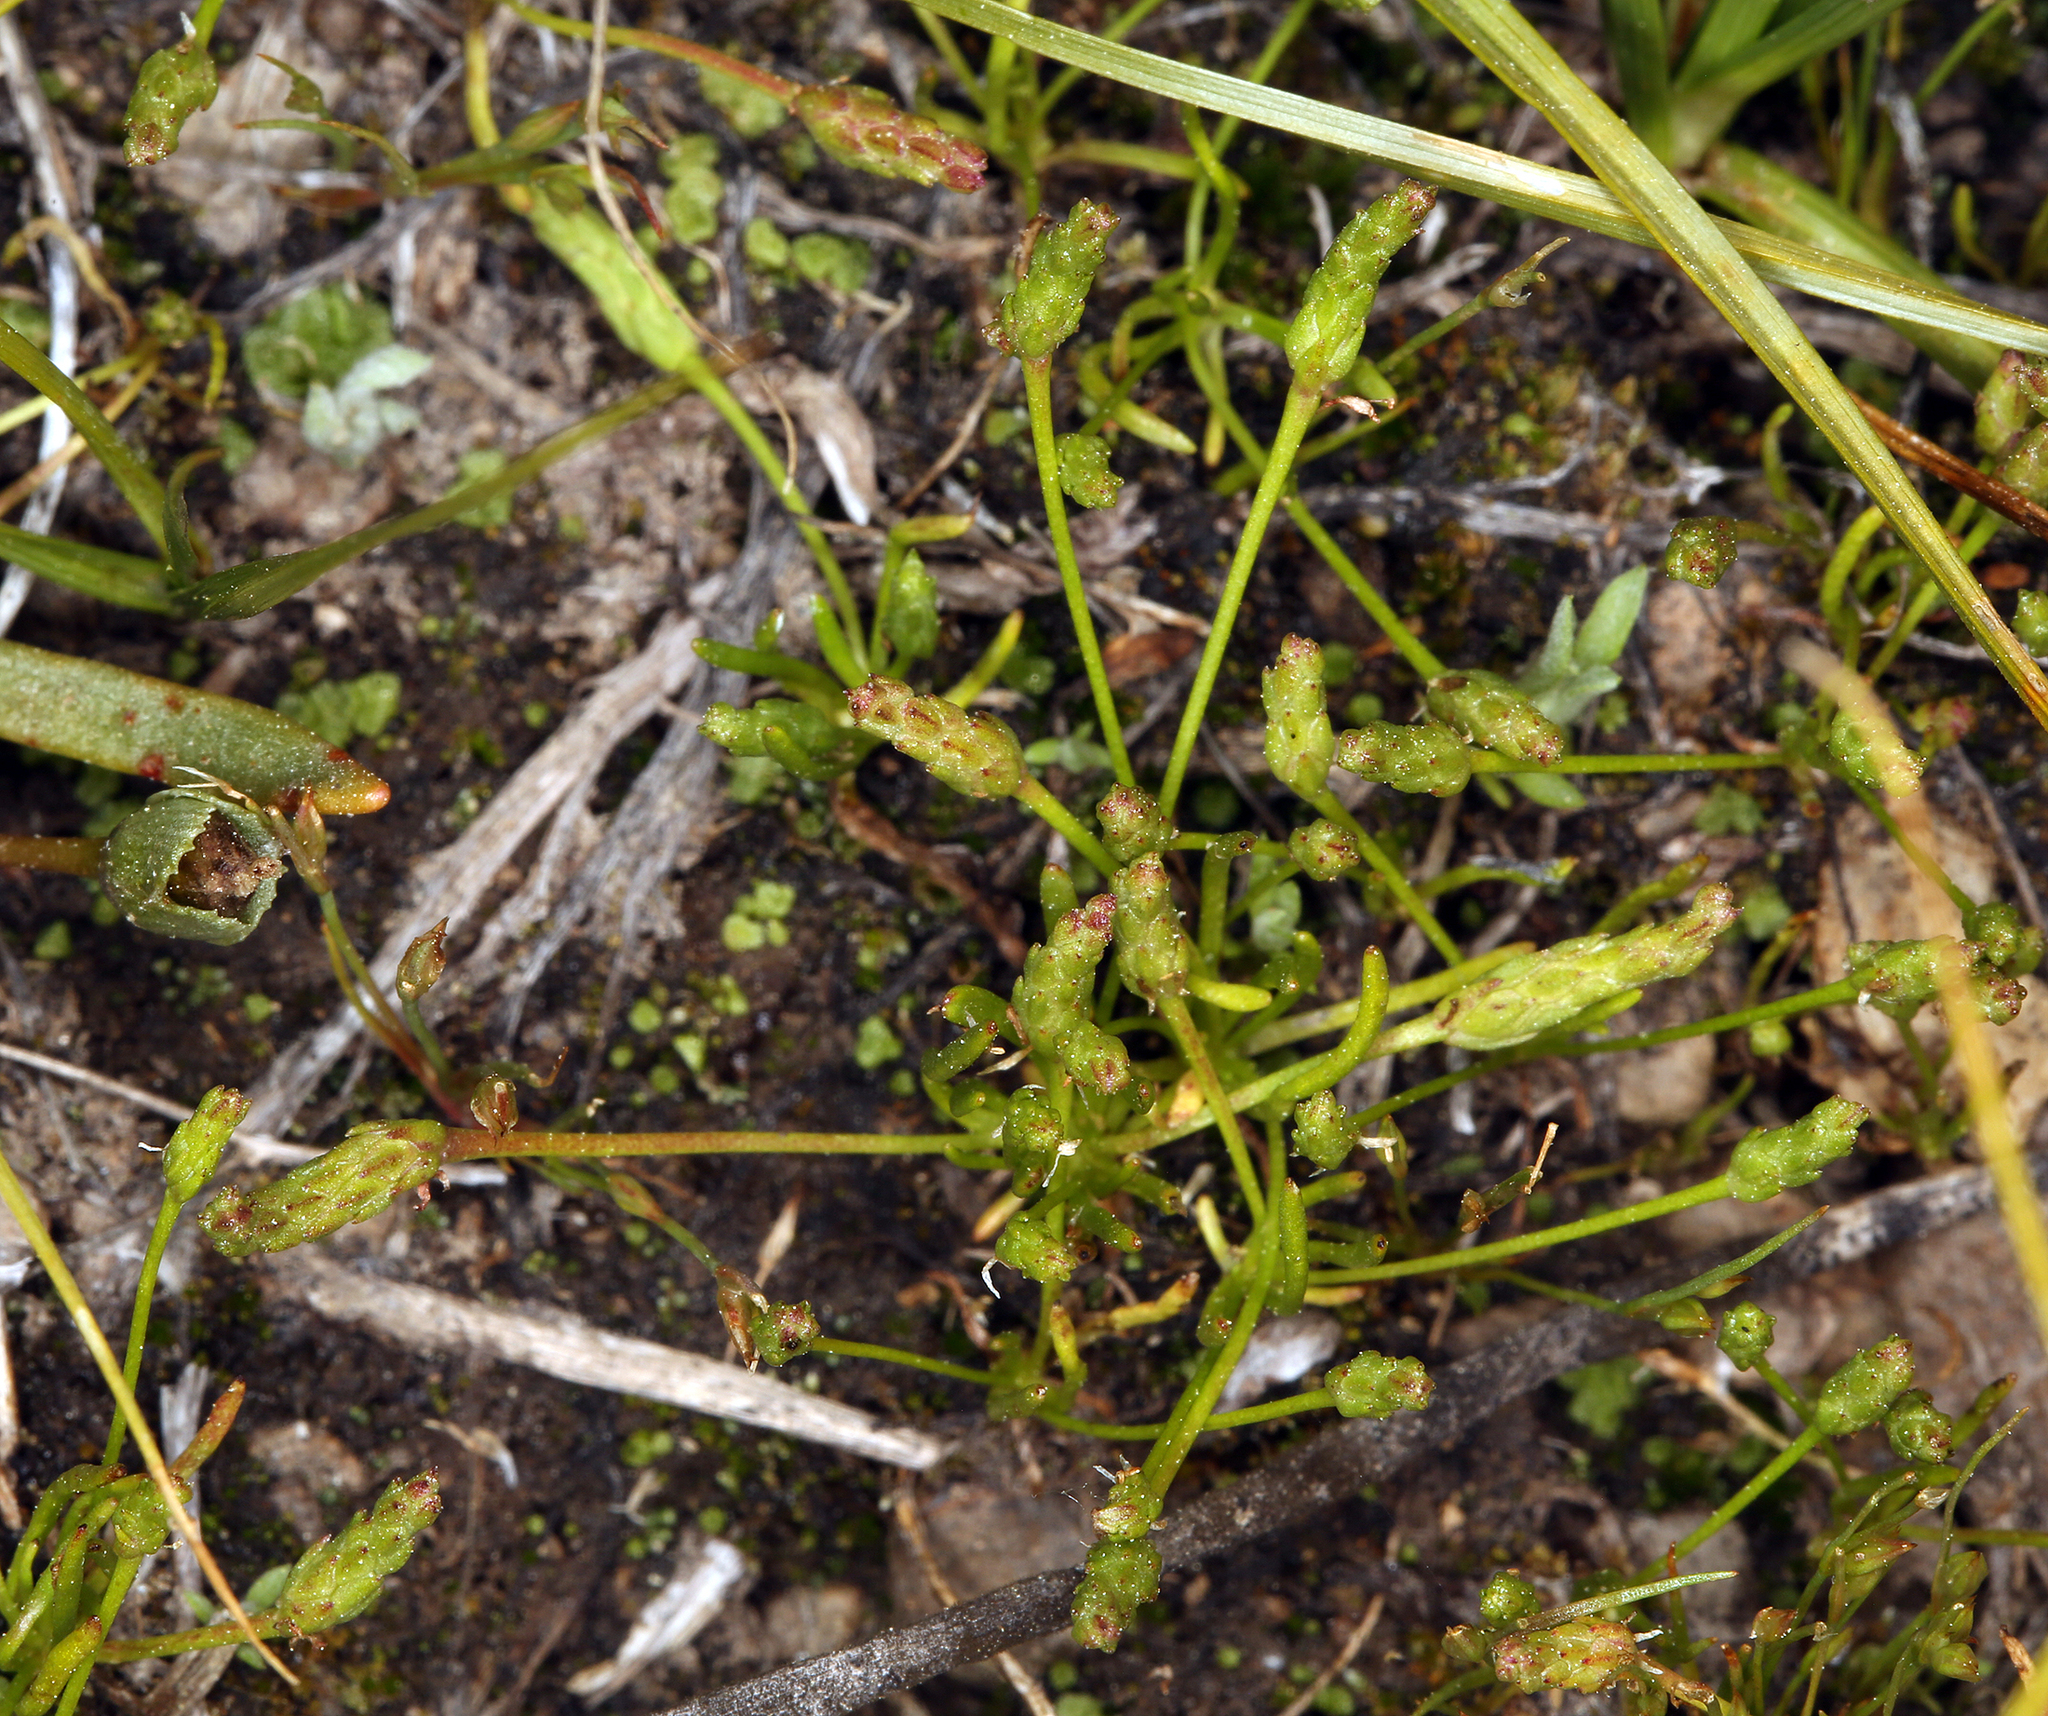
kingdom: Plantae
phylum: Tracheophyta
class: Magnoliopsida
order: Ranunculales
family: Ranunculaceae
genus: Myosurus
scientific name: Myosurus minimus
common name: Mousetail
